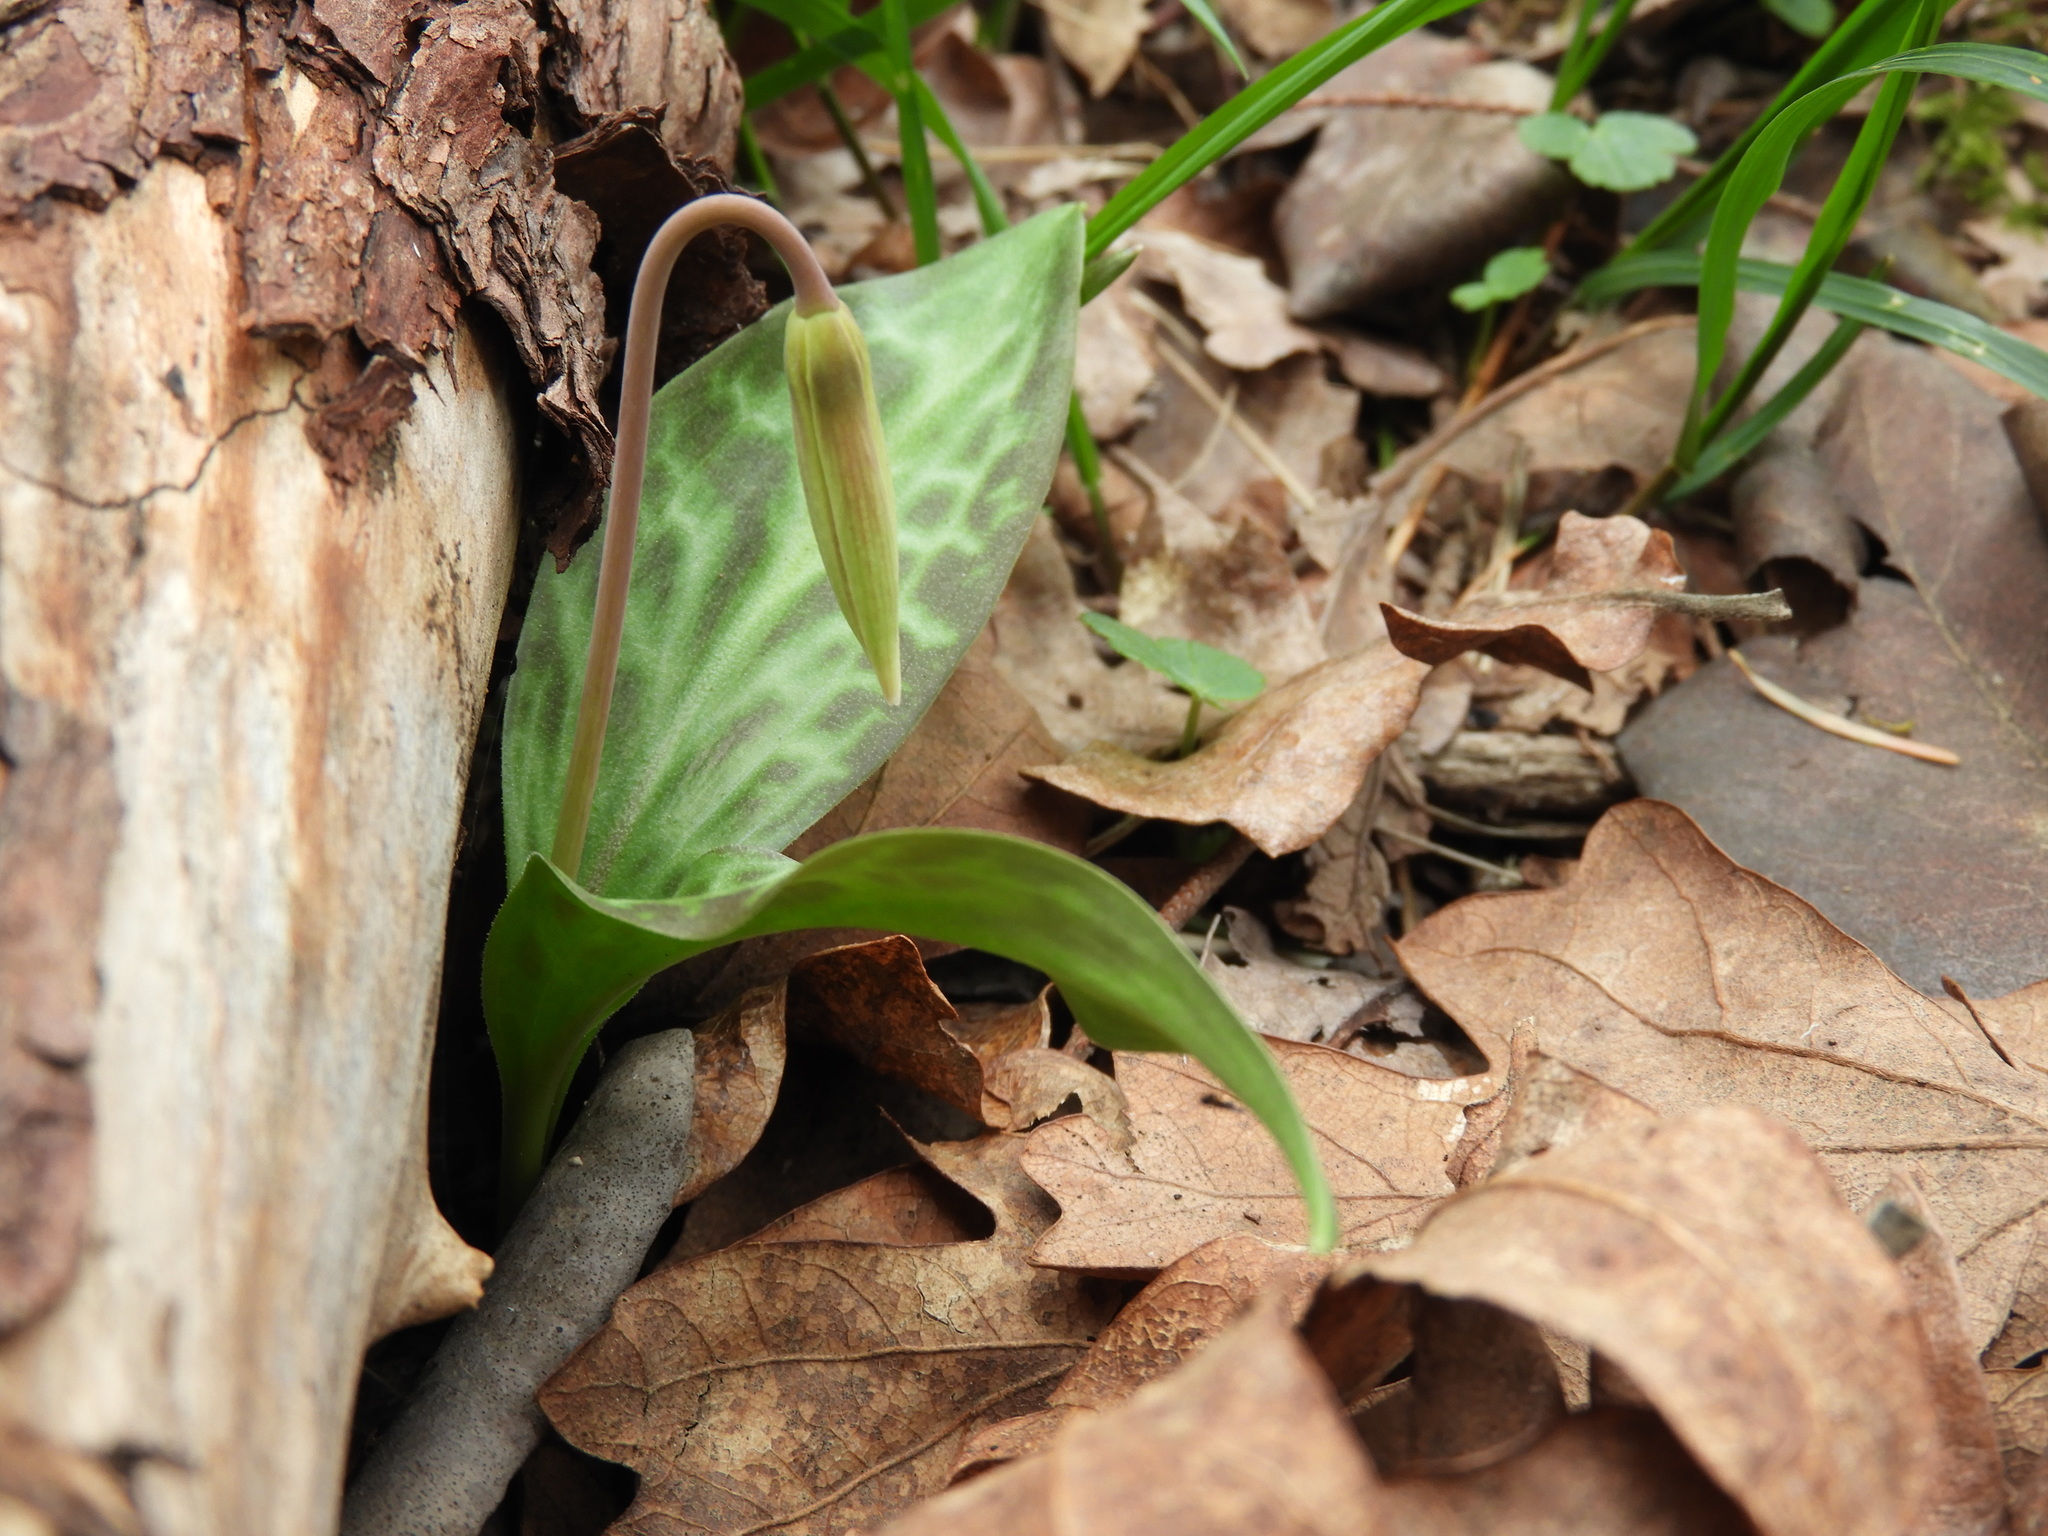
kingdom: Plantae
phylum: Tracheophyta
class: Liliopsida
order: Liliales
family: Liliaceae
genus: Erythronium
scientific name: Erythronium oregonum
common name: Giant adder's-tongue
